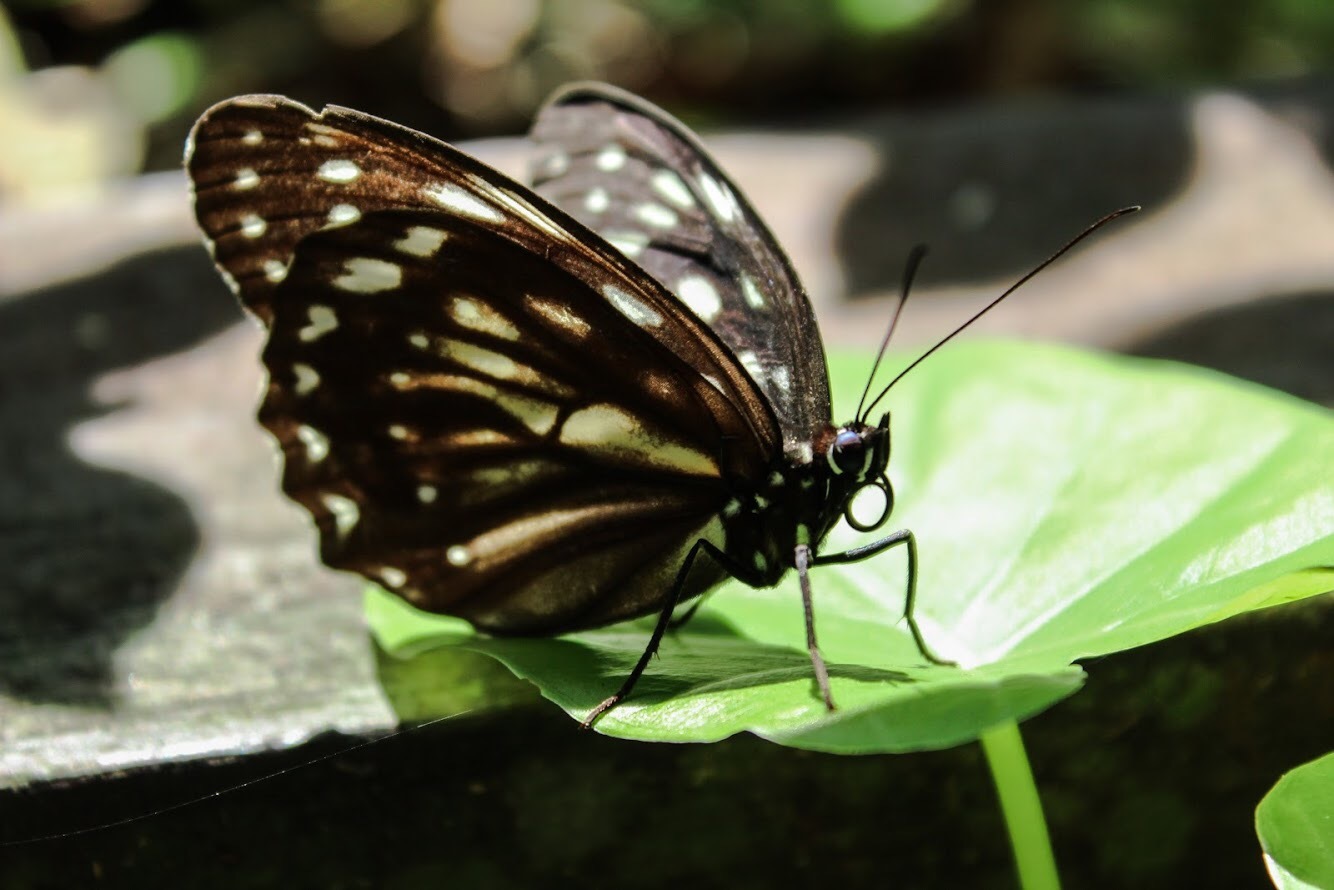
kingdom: Animalia
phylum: Arthropoda
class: Insecta
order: Lepidoptera
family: Nymphalidae
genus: Penthema
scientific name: Penthema formosanum
